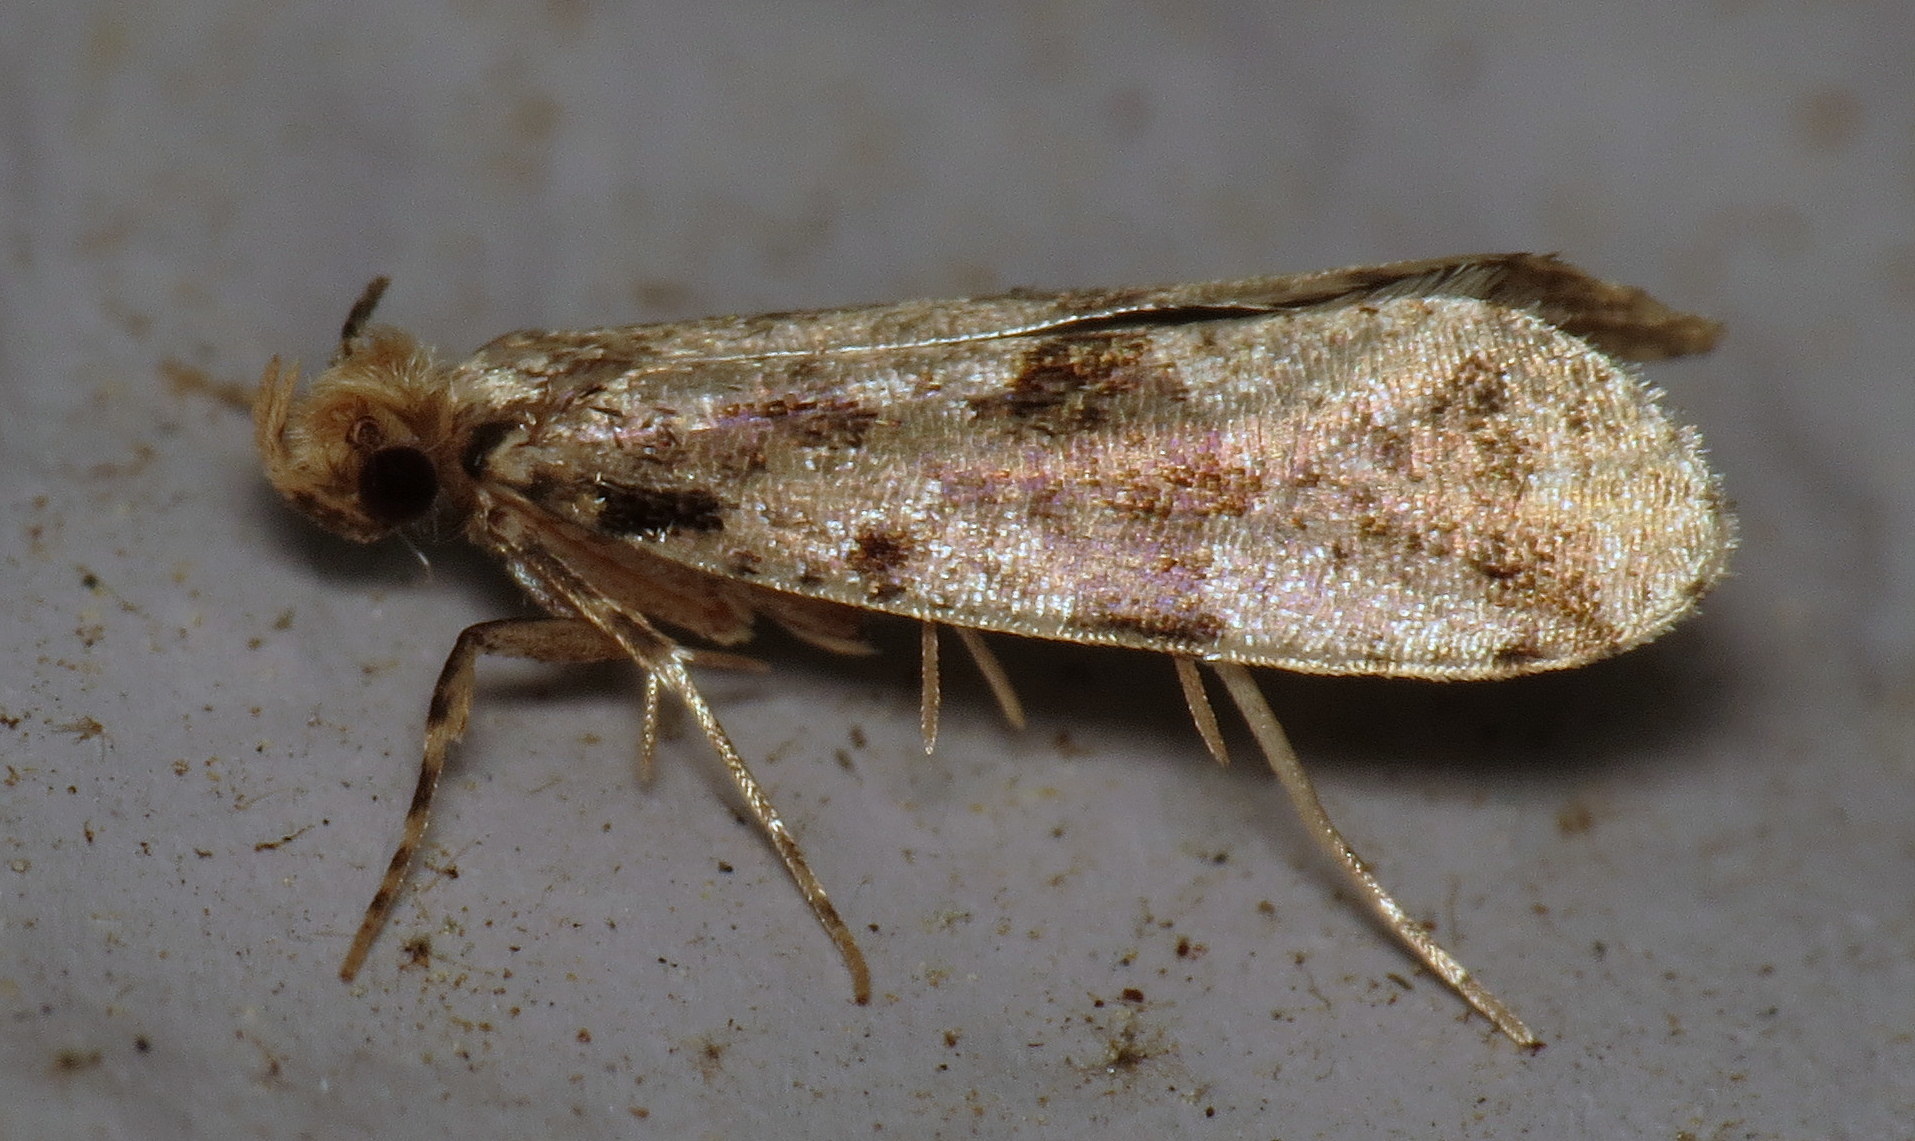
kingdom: Animalia
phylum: Arthropoda
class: Insecta
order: Lepidoptera
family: Tineidae
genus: Scardiella
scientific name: Scardiella approximatella
